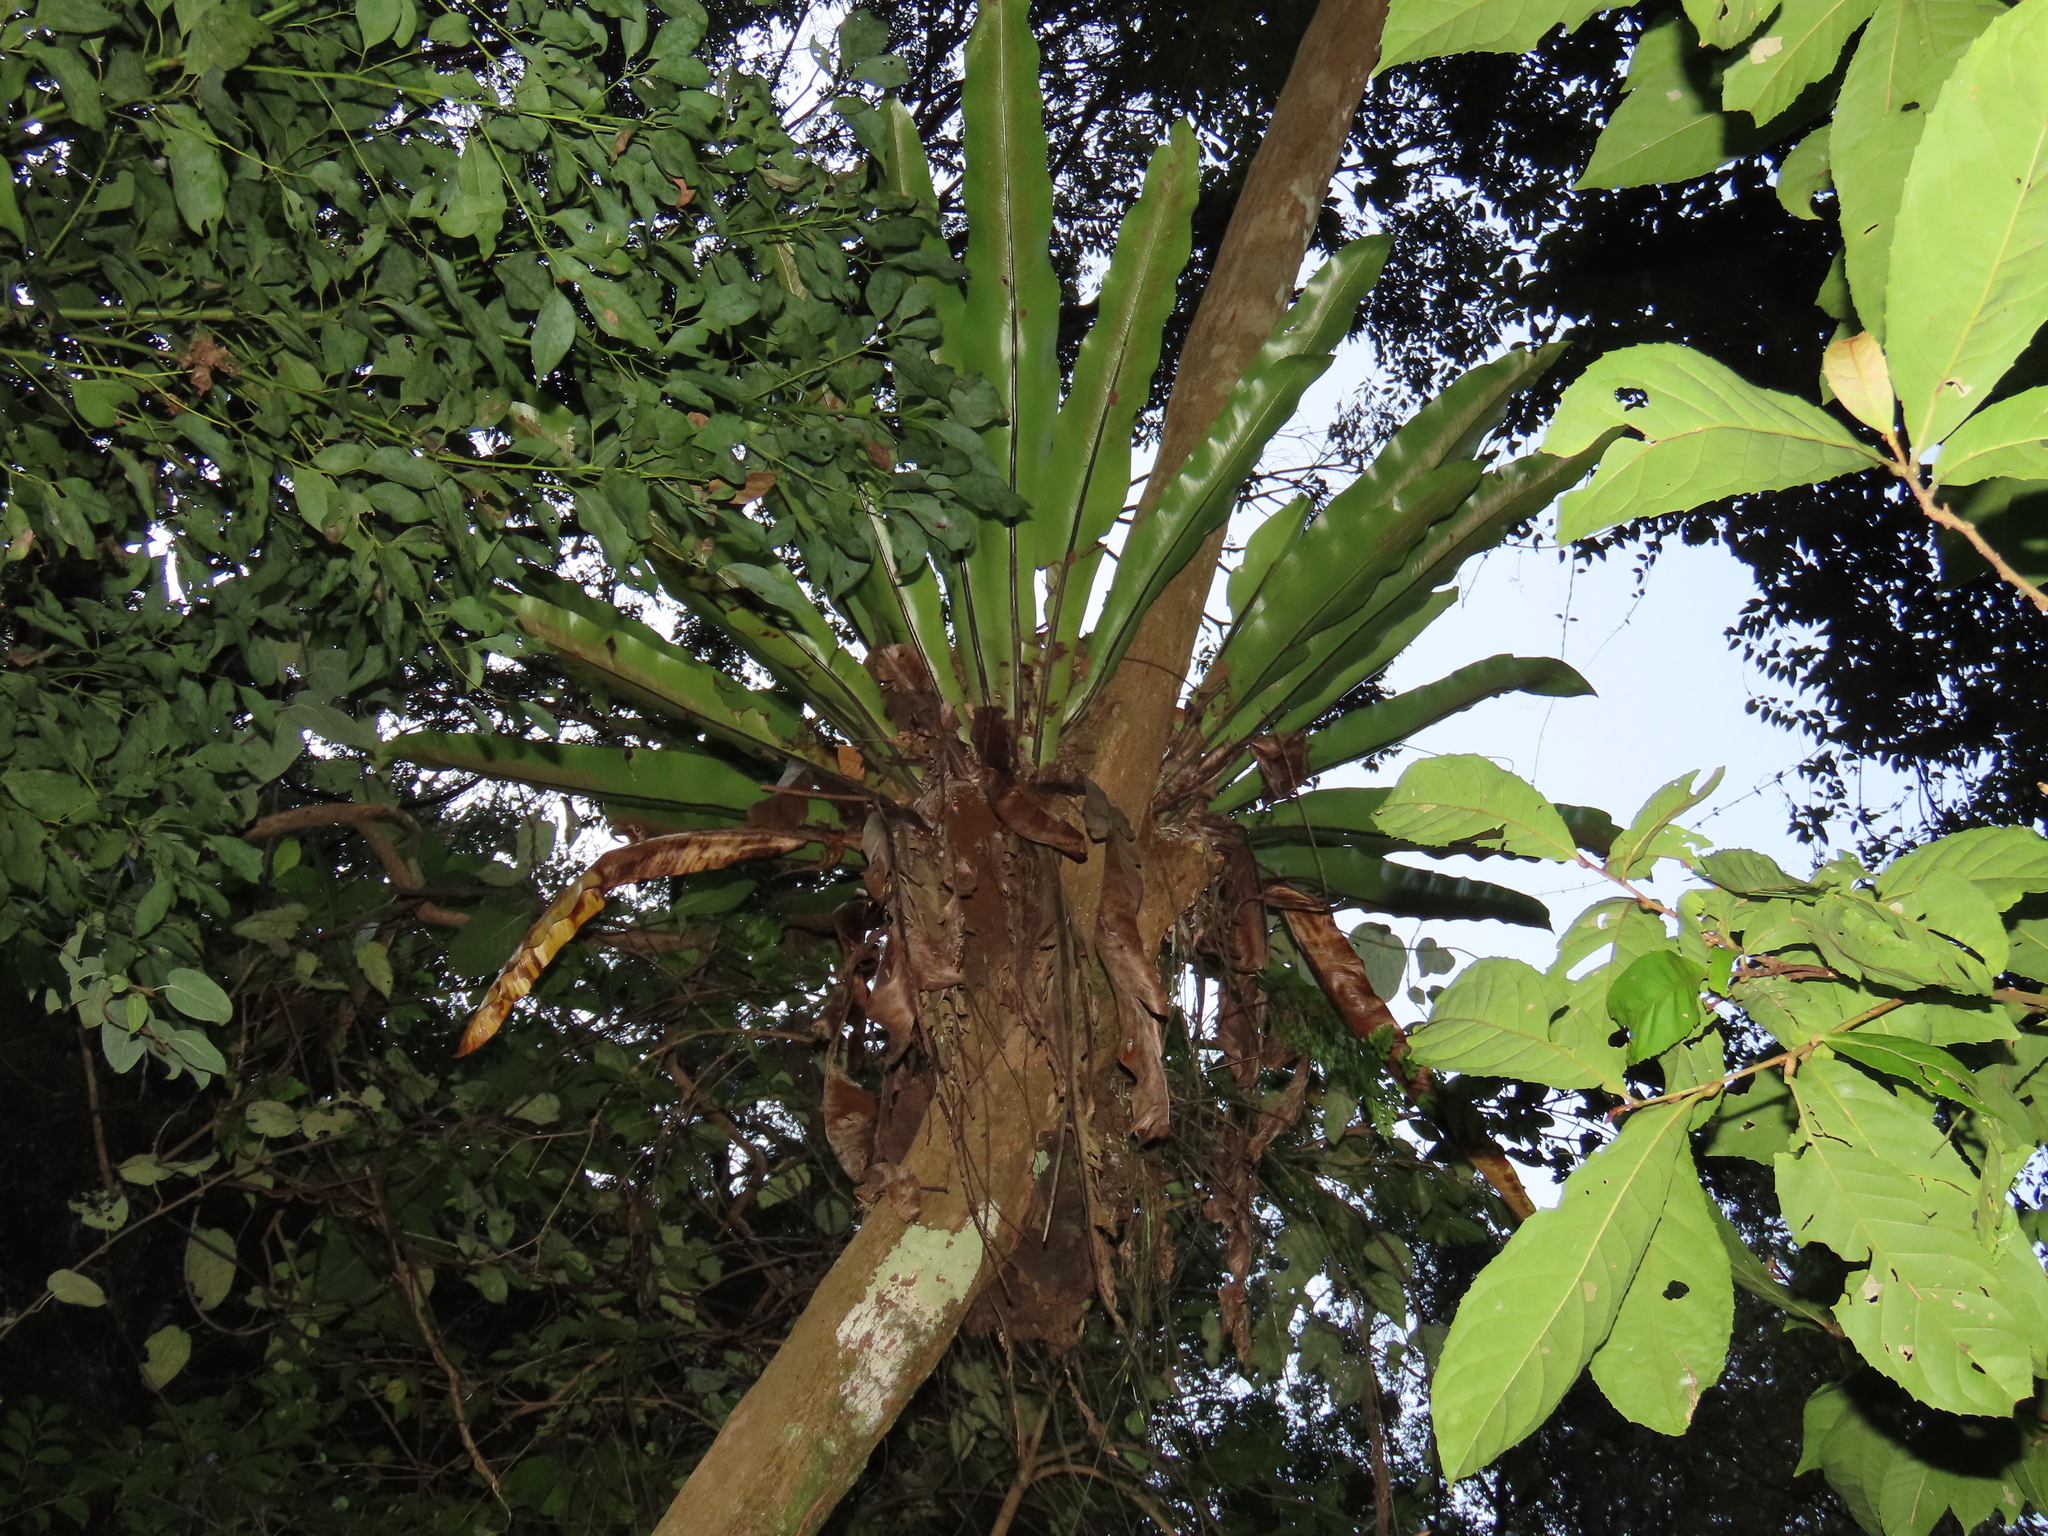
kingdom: Plantae
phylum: Tracheophyta
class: Polypodiopsida
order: Polypodiales
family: Aspleniaceae
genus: Asplenium
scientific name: Asplenium nidus
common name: Bird's-nest fern
